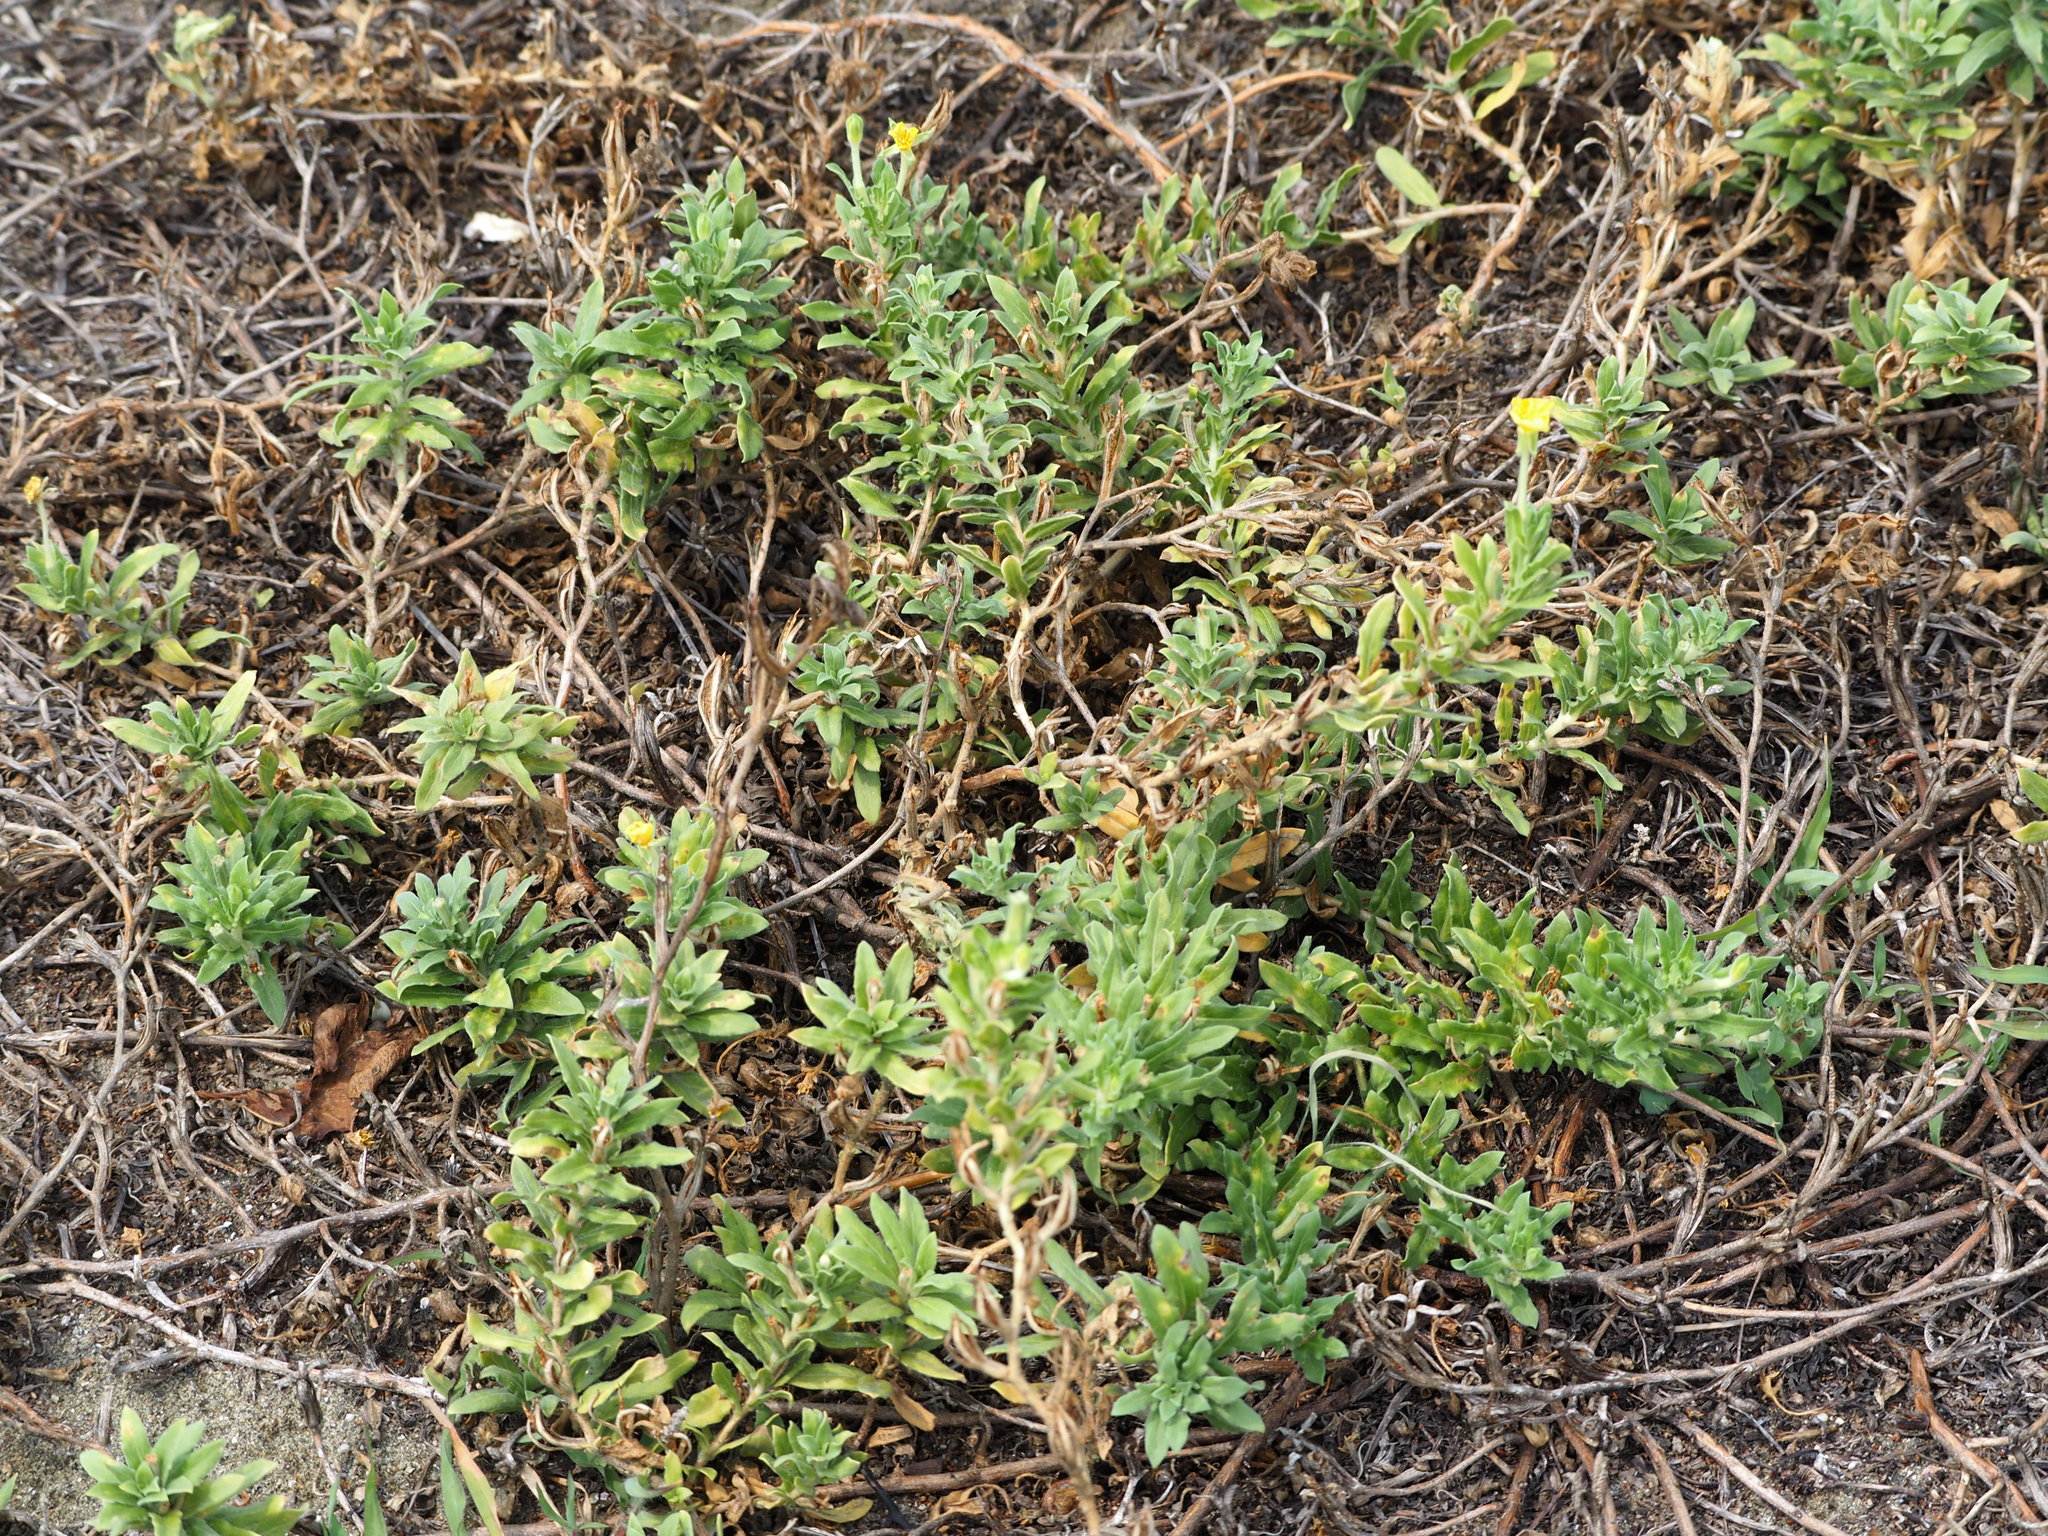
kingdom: Plantae
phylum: Tracheophyta
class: Magnoliopsida
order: Myrtales
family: Onagraceae
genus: Oenothera
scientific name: Oenothera laciniata
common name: Cut-leaved evening-primrose
